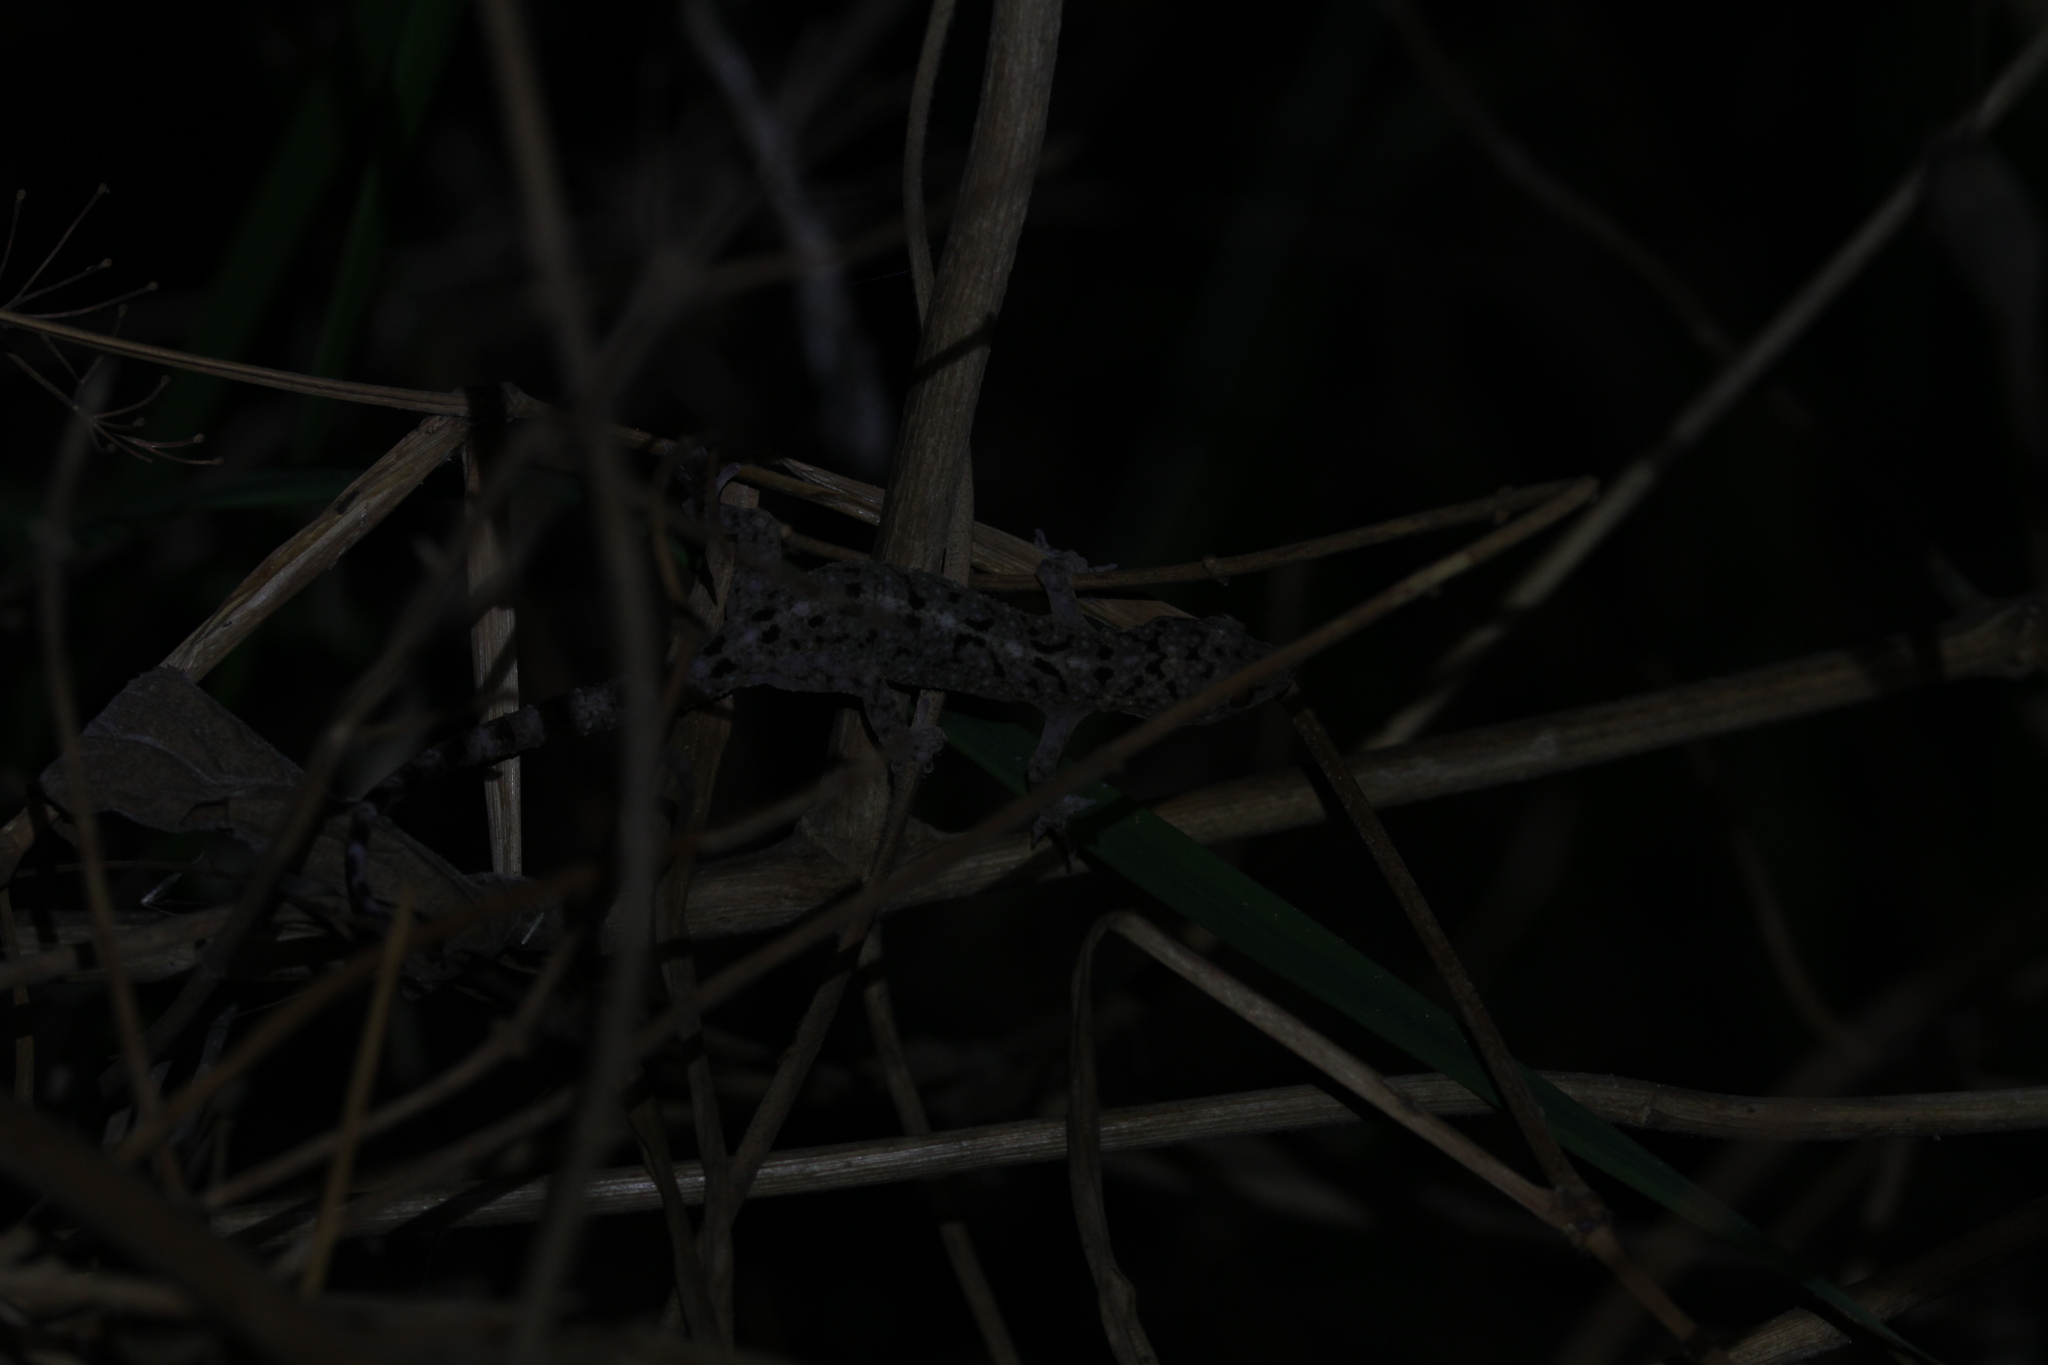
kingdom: Animalia
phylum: Chordata
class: Squamata
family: Gekkonidae
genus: Gekko
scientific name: Gekko monarchus
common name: Spotted house gecko
